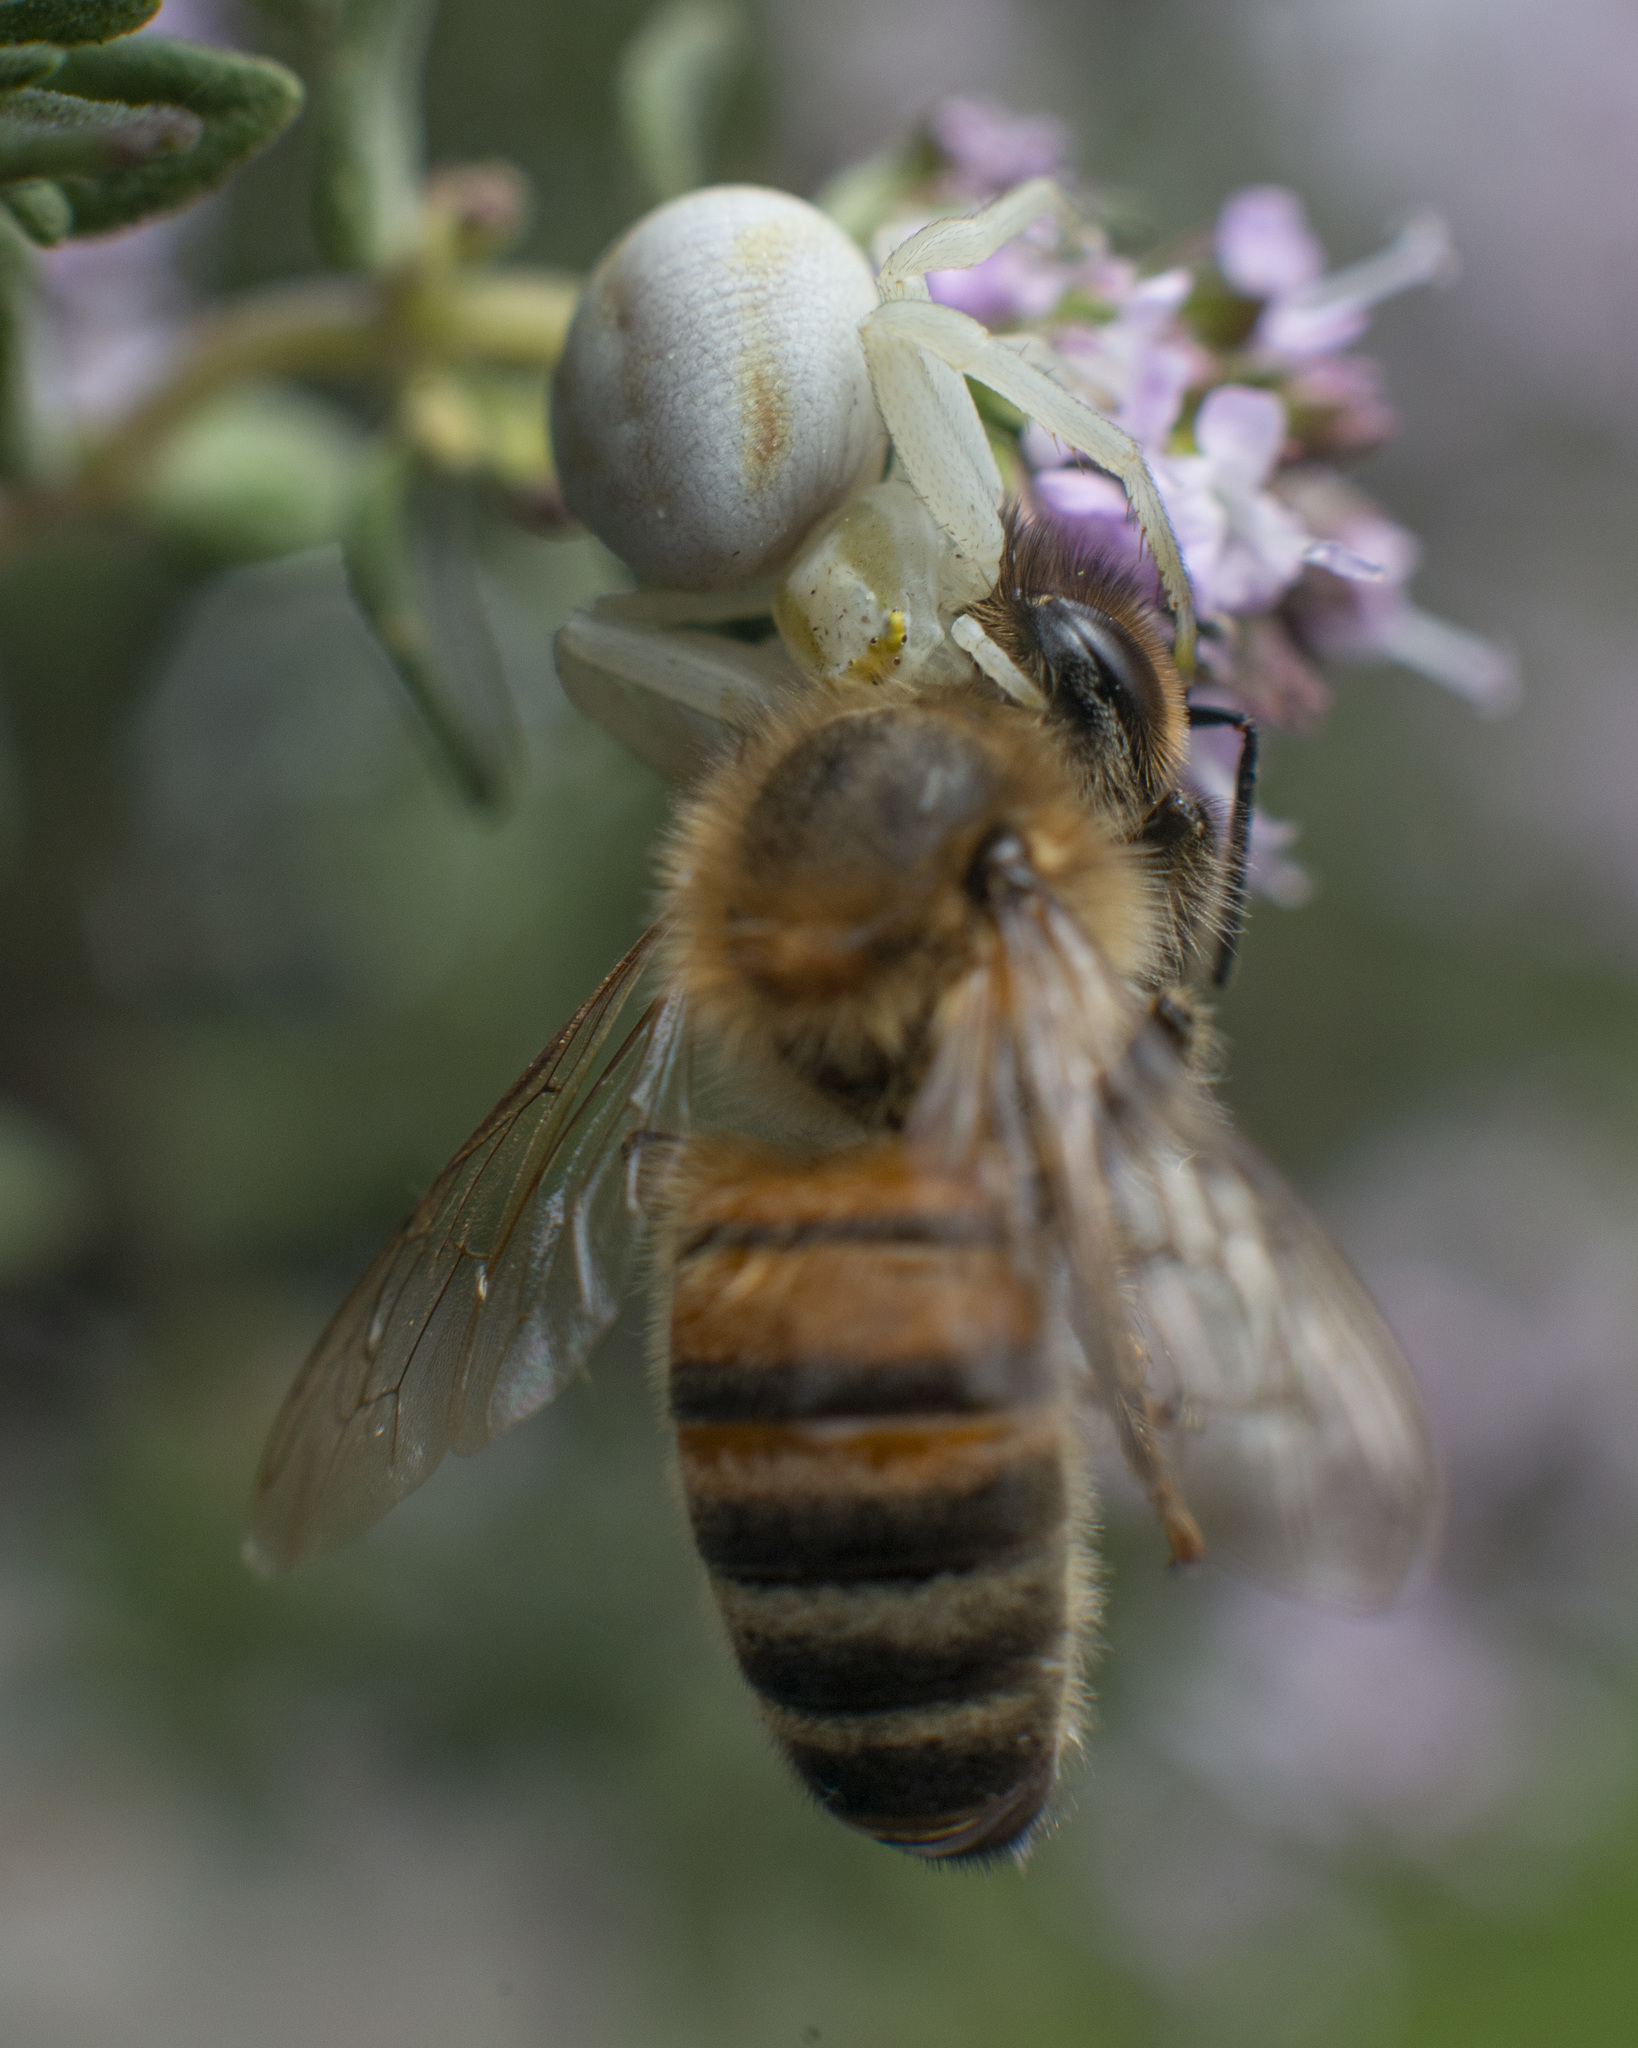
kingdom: Animalia
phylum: Arthropoda
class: Arachnida
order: Araneae
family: Thomisidae
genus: Misumena
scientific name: Misumena vatia
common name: Goldenrod crab spider
